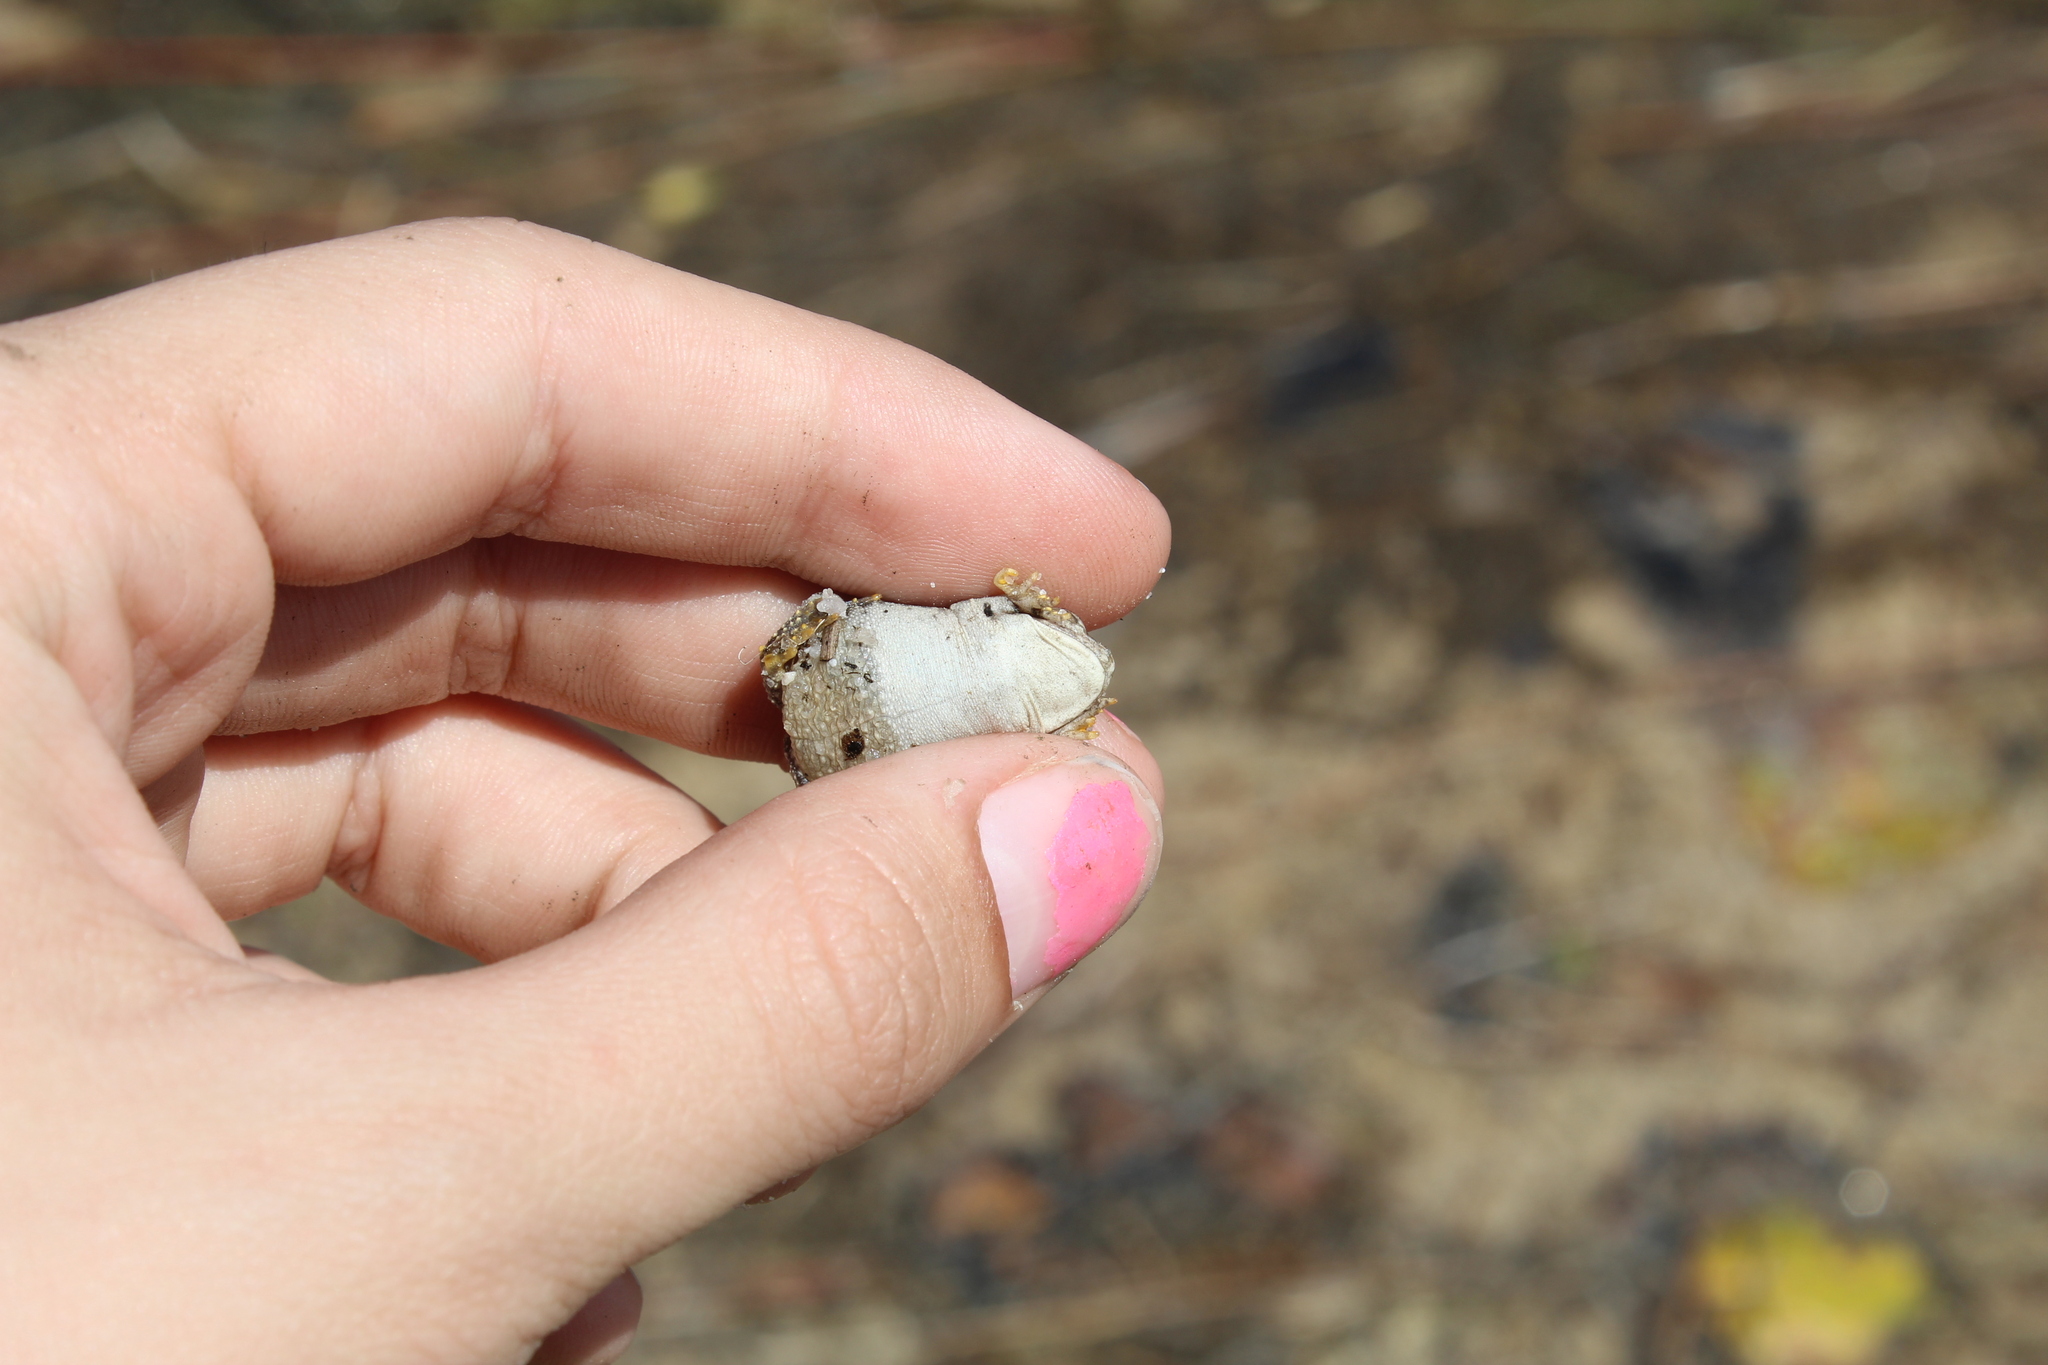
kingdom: Animalia
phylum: Chordata
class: Amphibia
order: Anura
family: Bufonidae
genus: Anaxyrus
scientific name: Anaxyrus fowleri
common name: Fowler's toad
